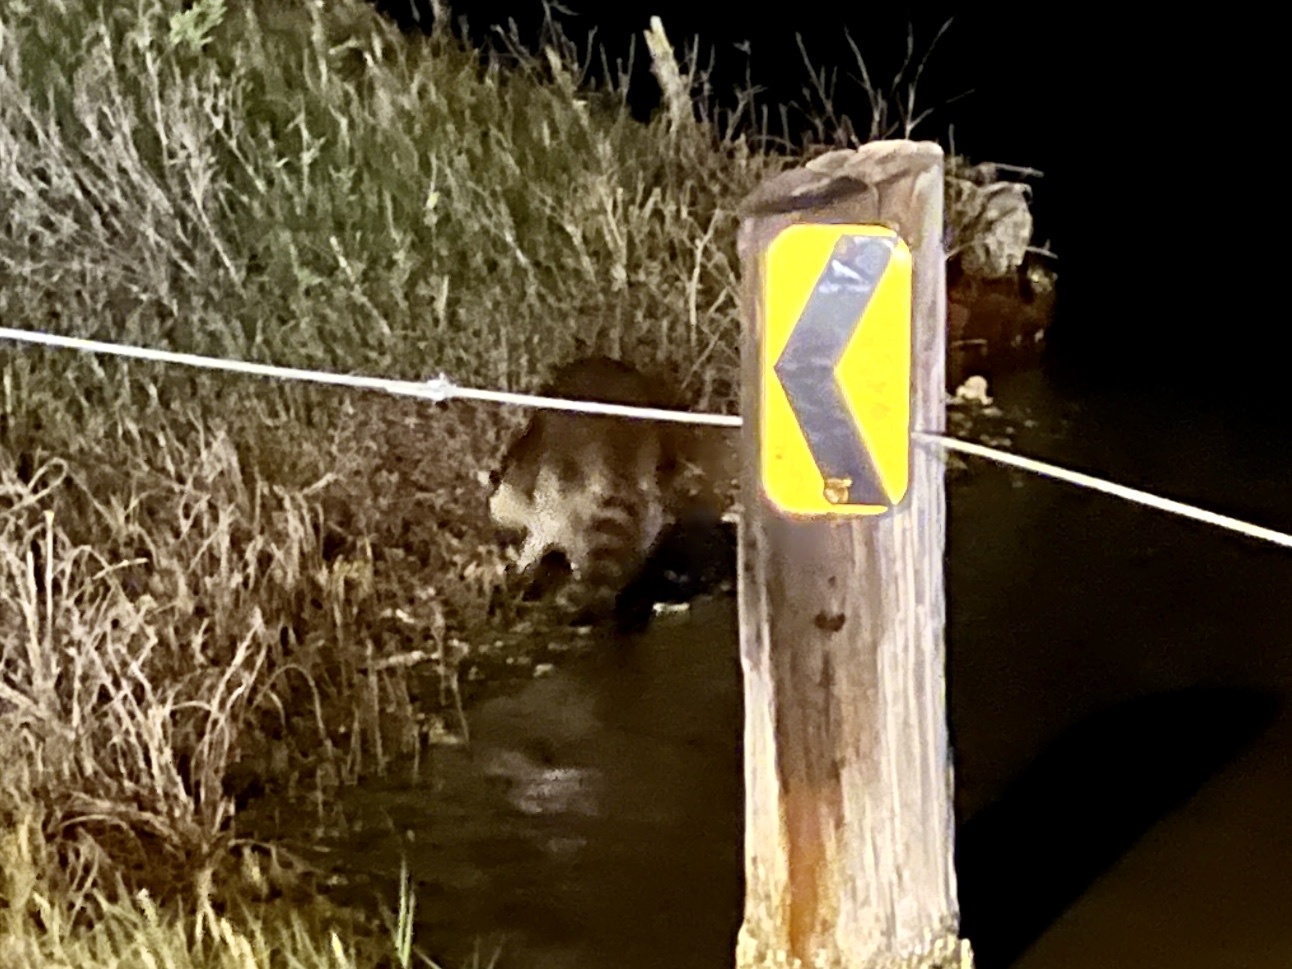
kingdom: Animalia
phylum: Chordata
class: Mammalia
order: Carnivora
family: Procyonidae
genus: Procyon
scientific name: Procyon lotor
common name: Raccoon
